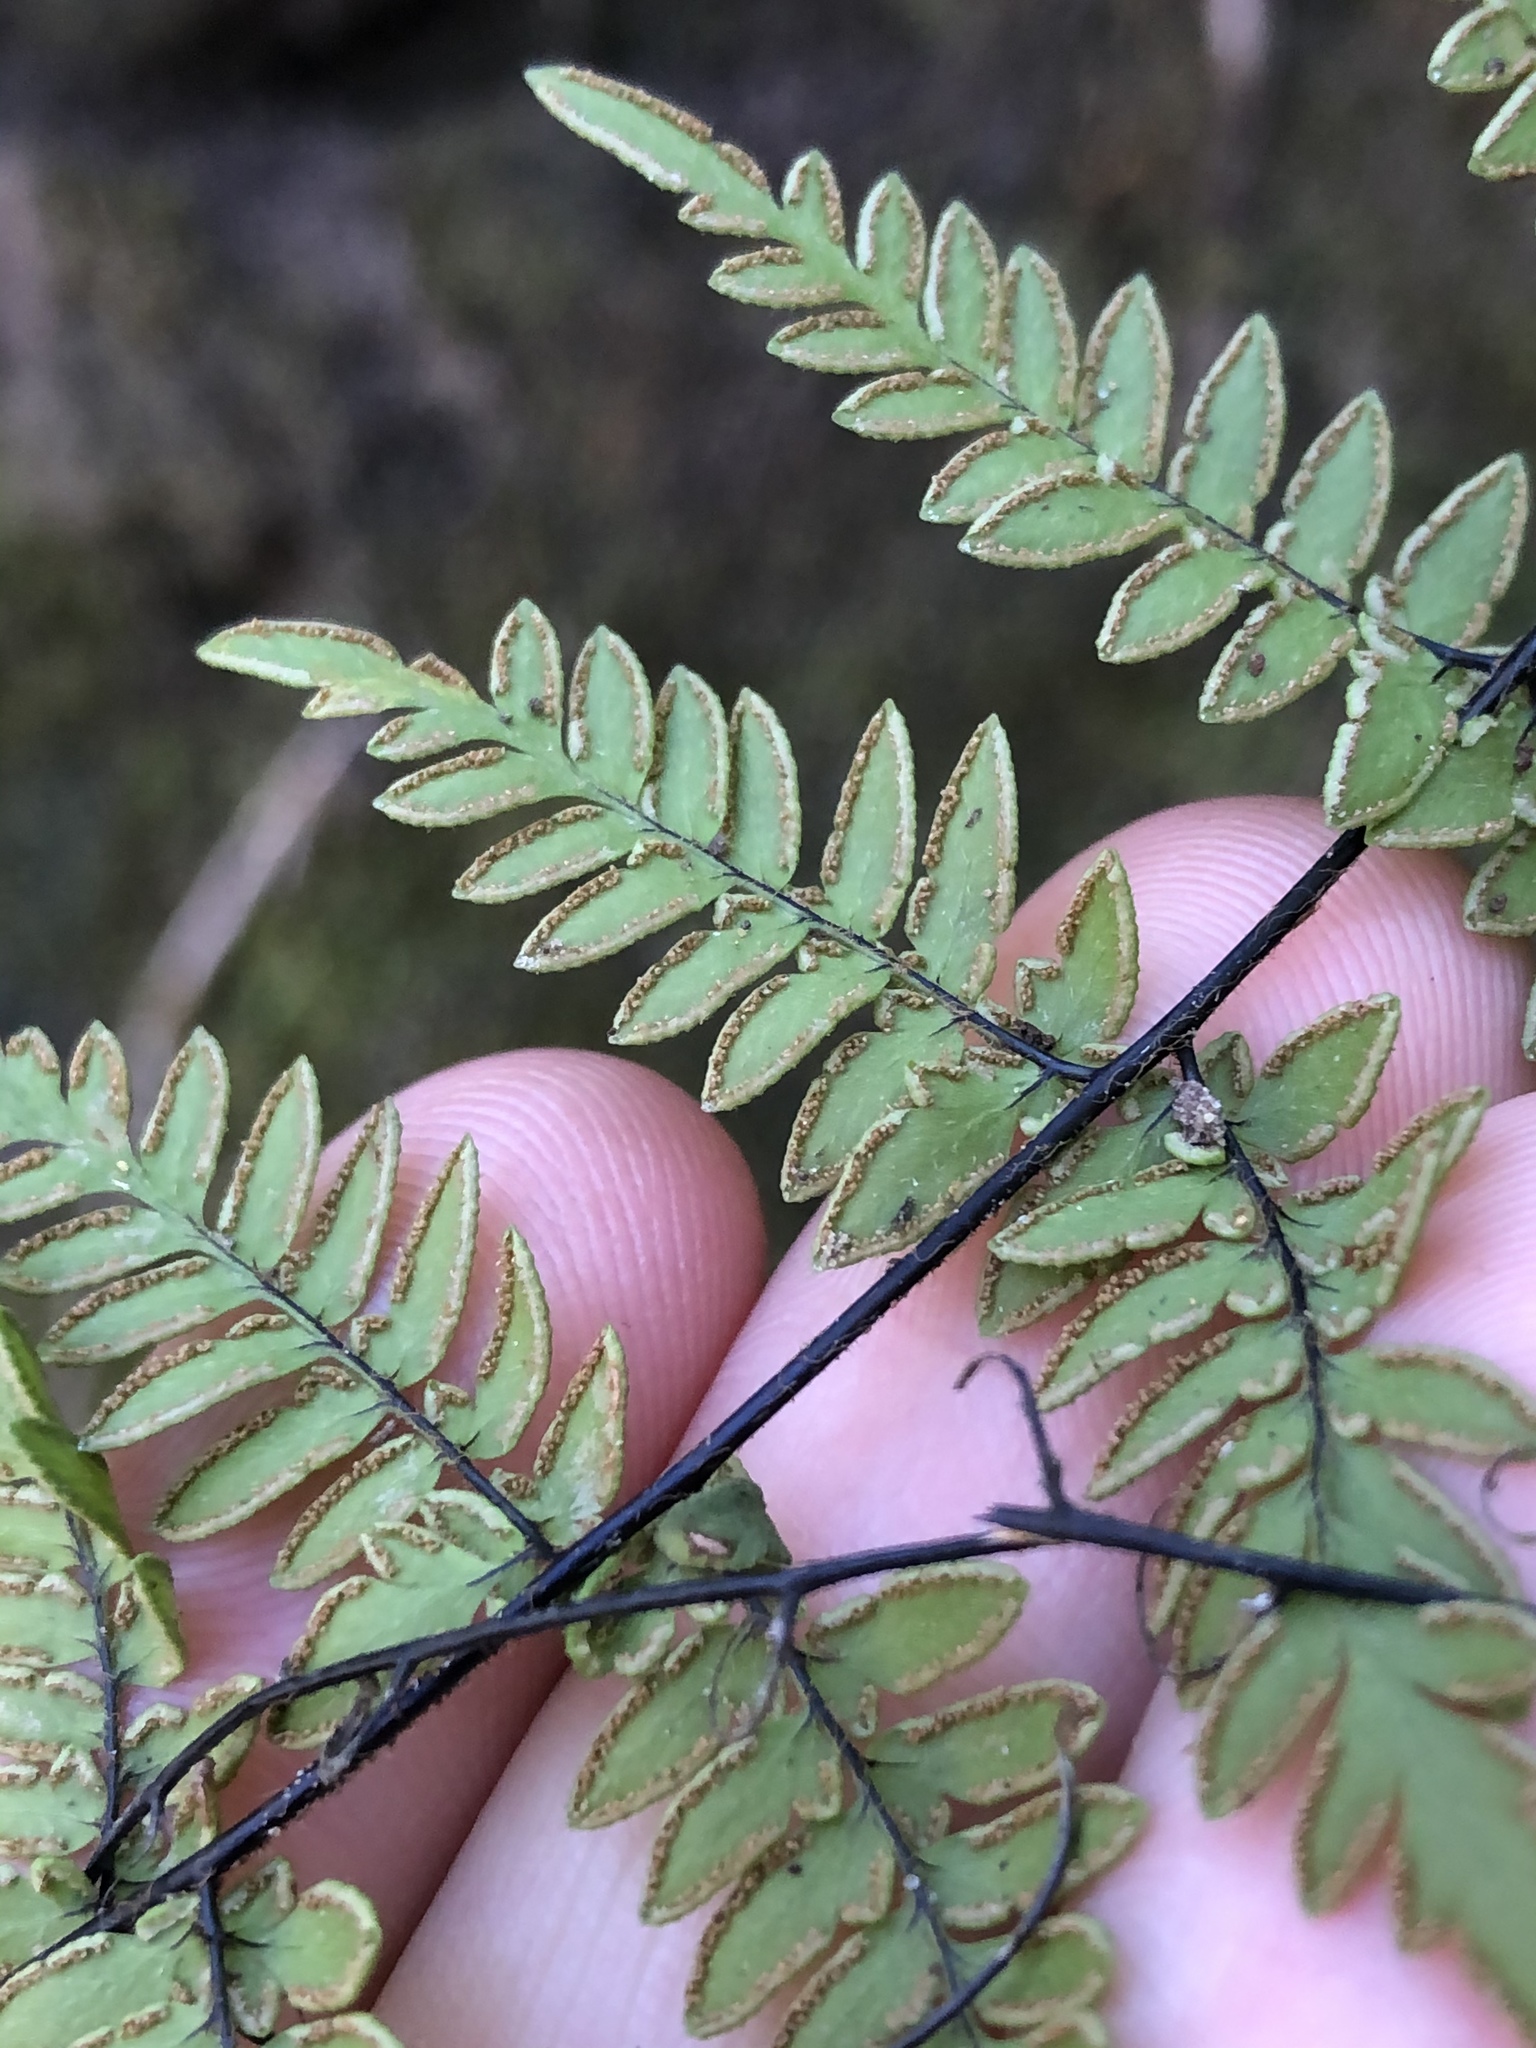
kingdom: Plantae
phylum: Tracheophyta
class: Polypodiopsida
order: Polypodiales
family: Pteridaceae
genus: Myriopteris
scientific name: Myriopteris alabamensis
